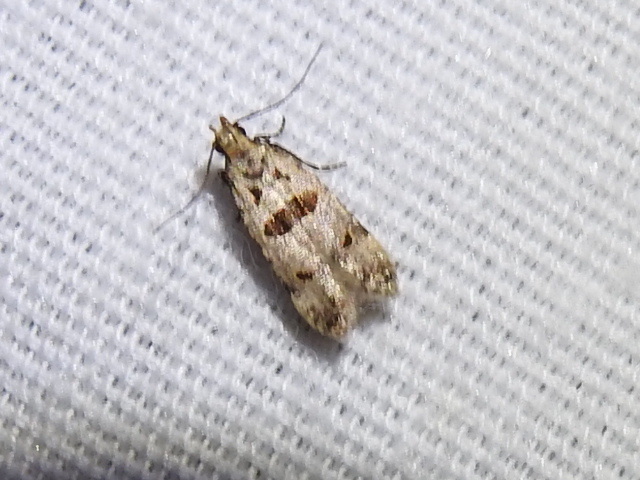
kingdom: Animalia
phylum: Arthropoda
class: Insecta
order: Lepidoptera
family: Gelechiidae
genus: Deltophora
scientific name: Deltophora glandiferella
